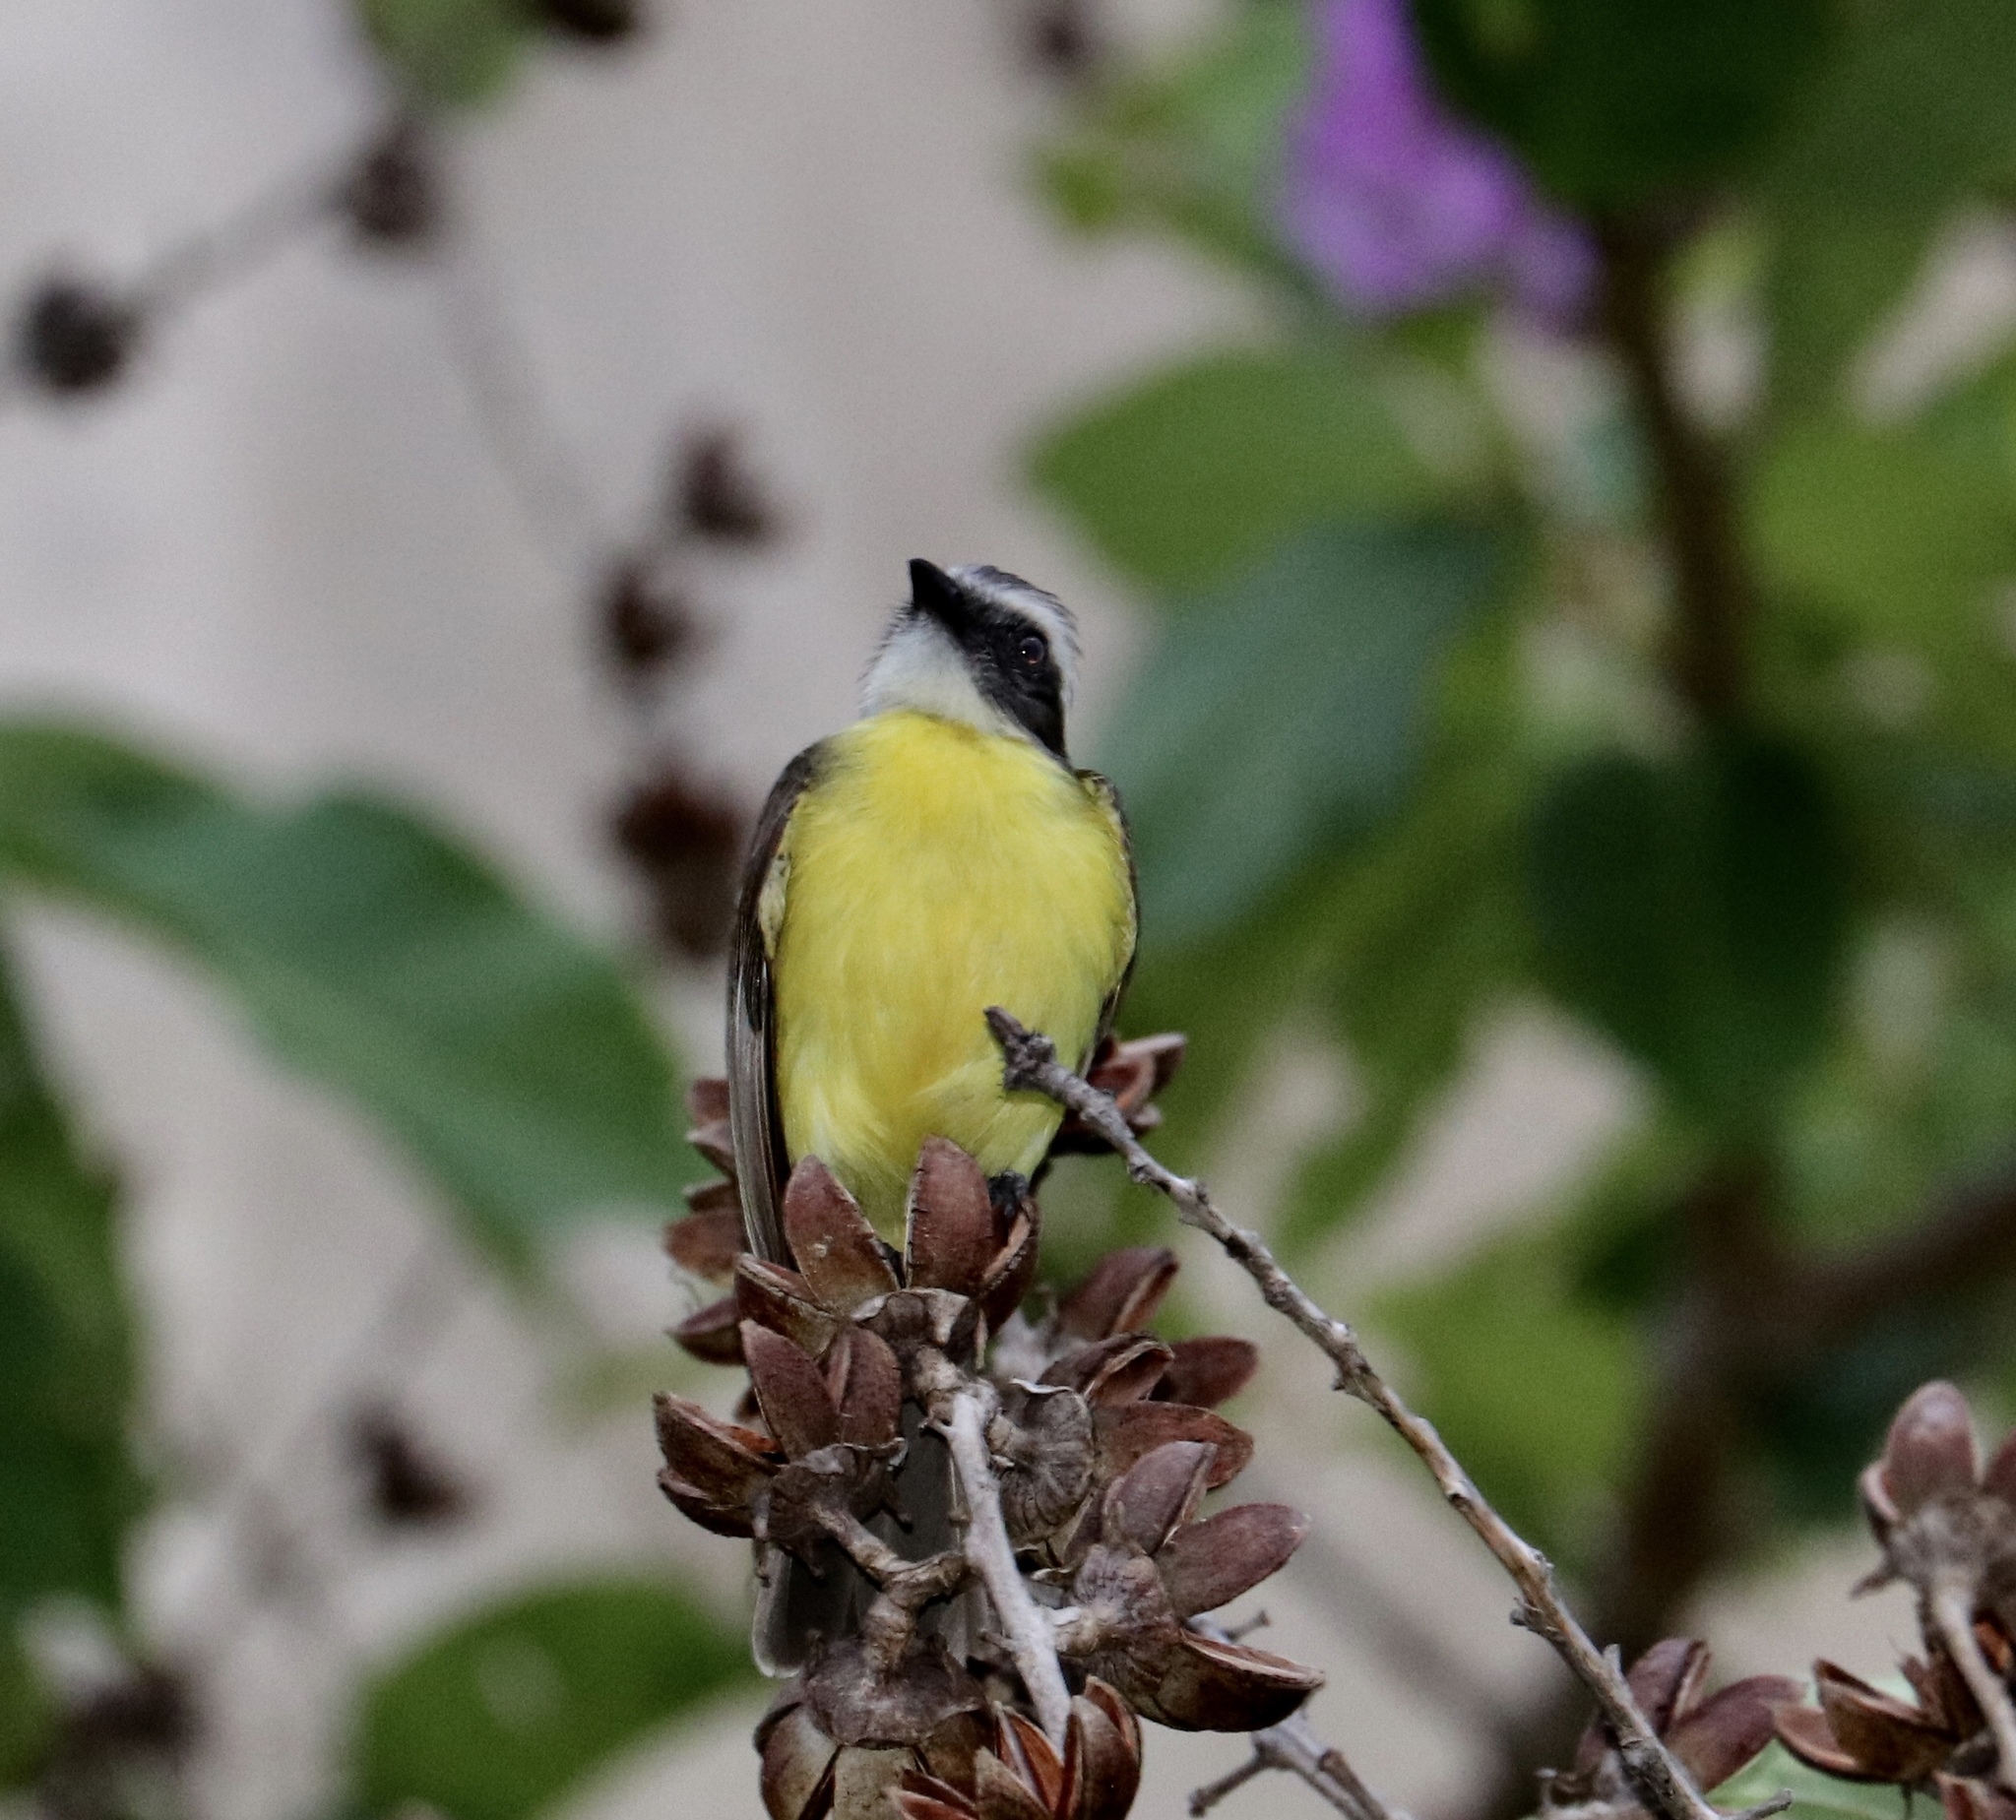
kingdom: Animalia
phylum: Chordata
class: Aves
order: Passeriformes
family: Tyrannidae
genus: Myiozetetes
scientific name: Myiozetetes similis
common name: Social flycatcher
